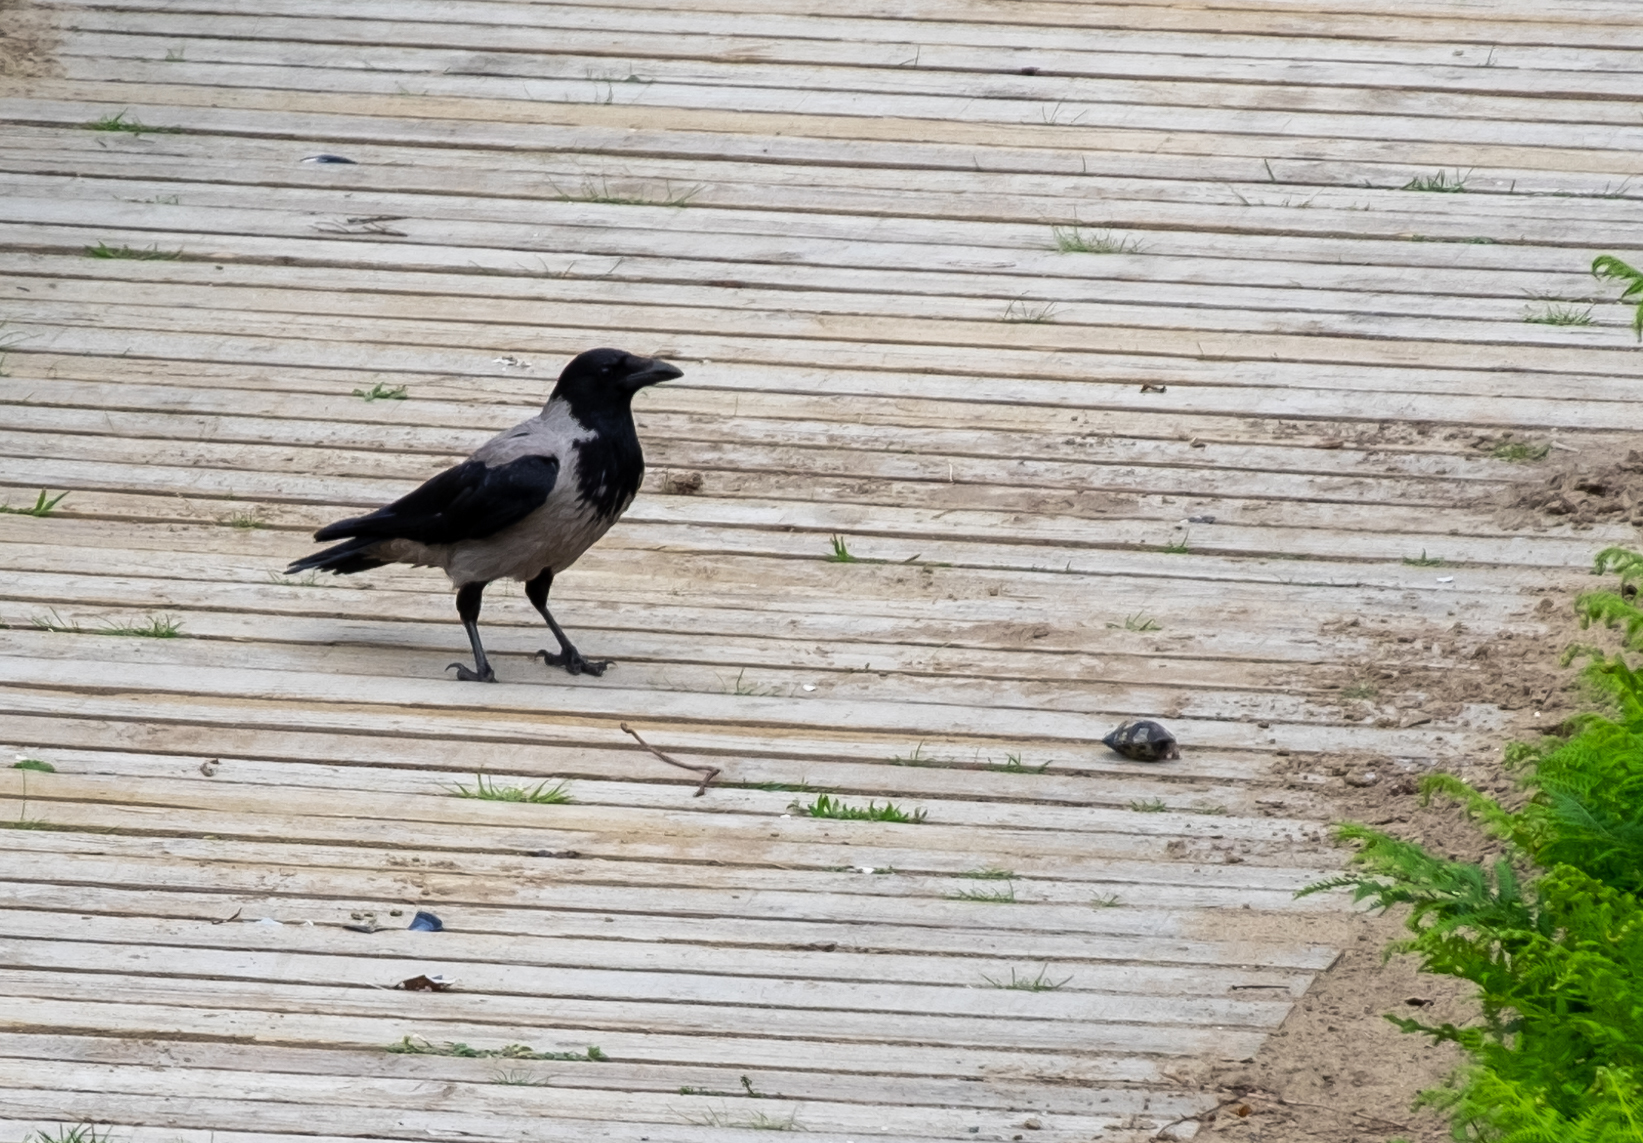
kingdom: Animalia
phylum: Chordata
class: Aves
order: Passeriformes
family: Corvidae
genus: Corvus
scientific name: Corvus cornix
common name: Hooded crow
